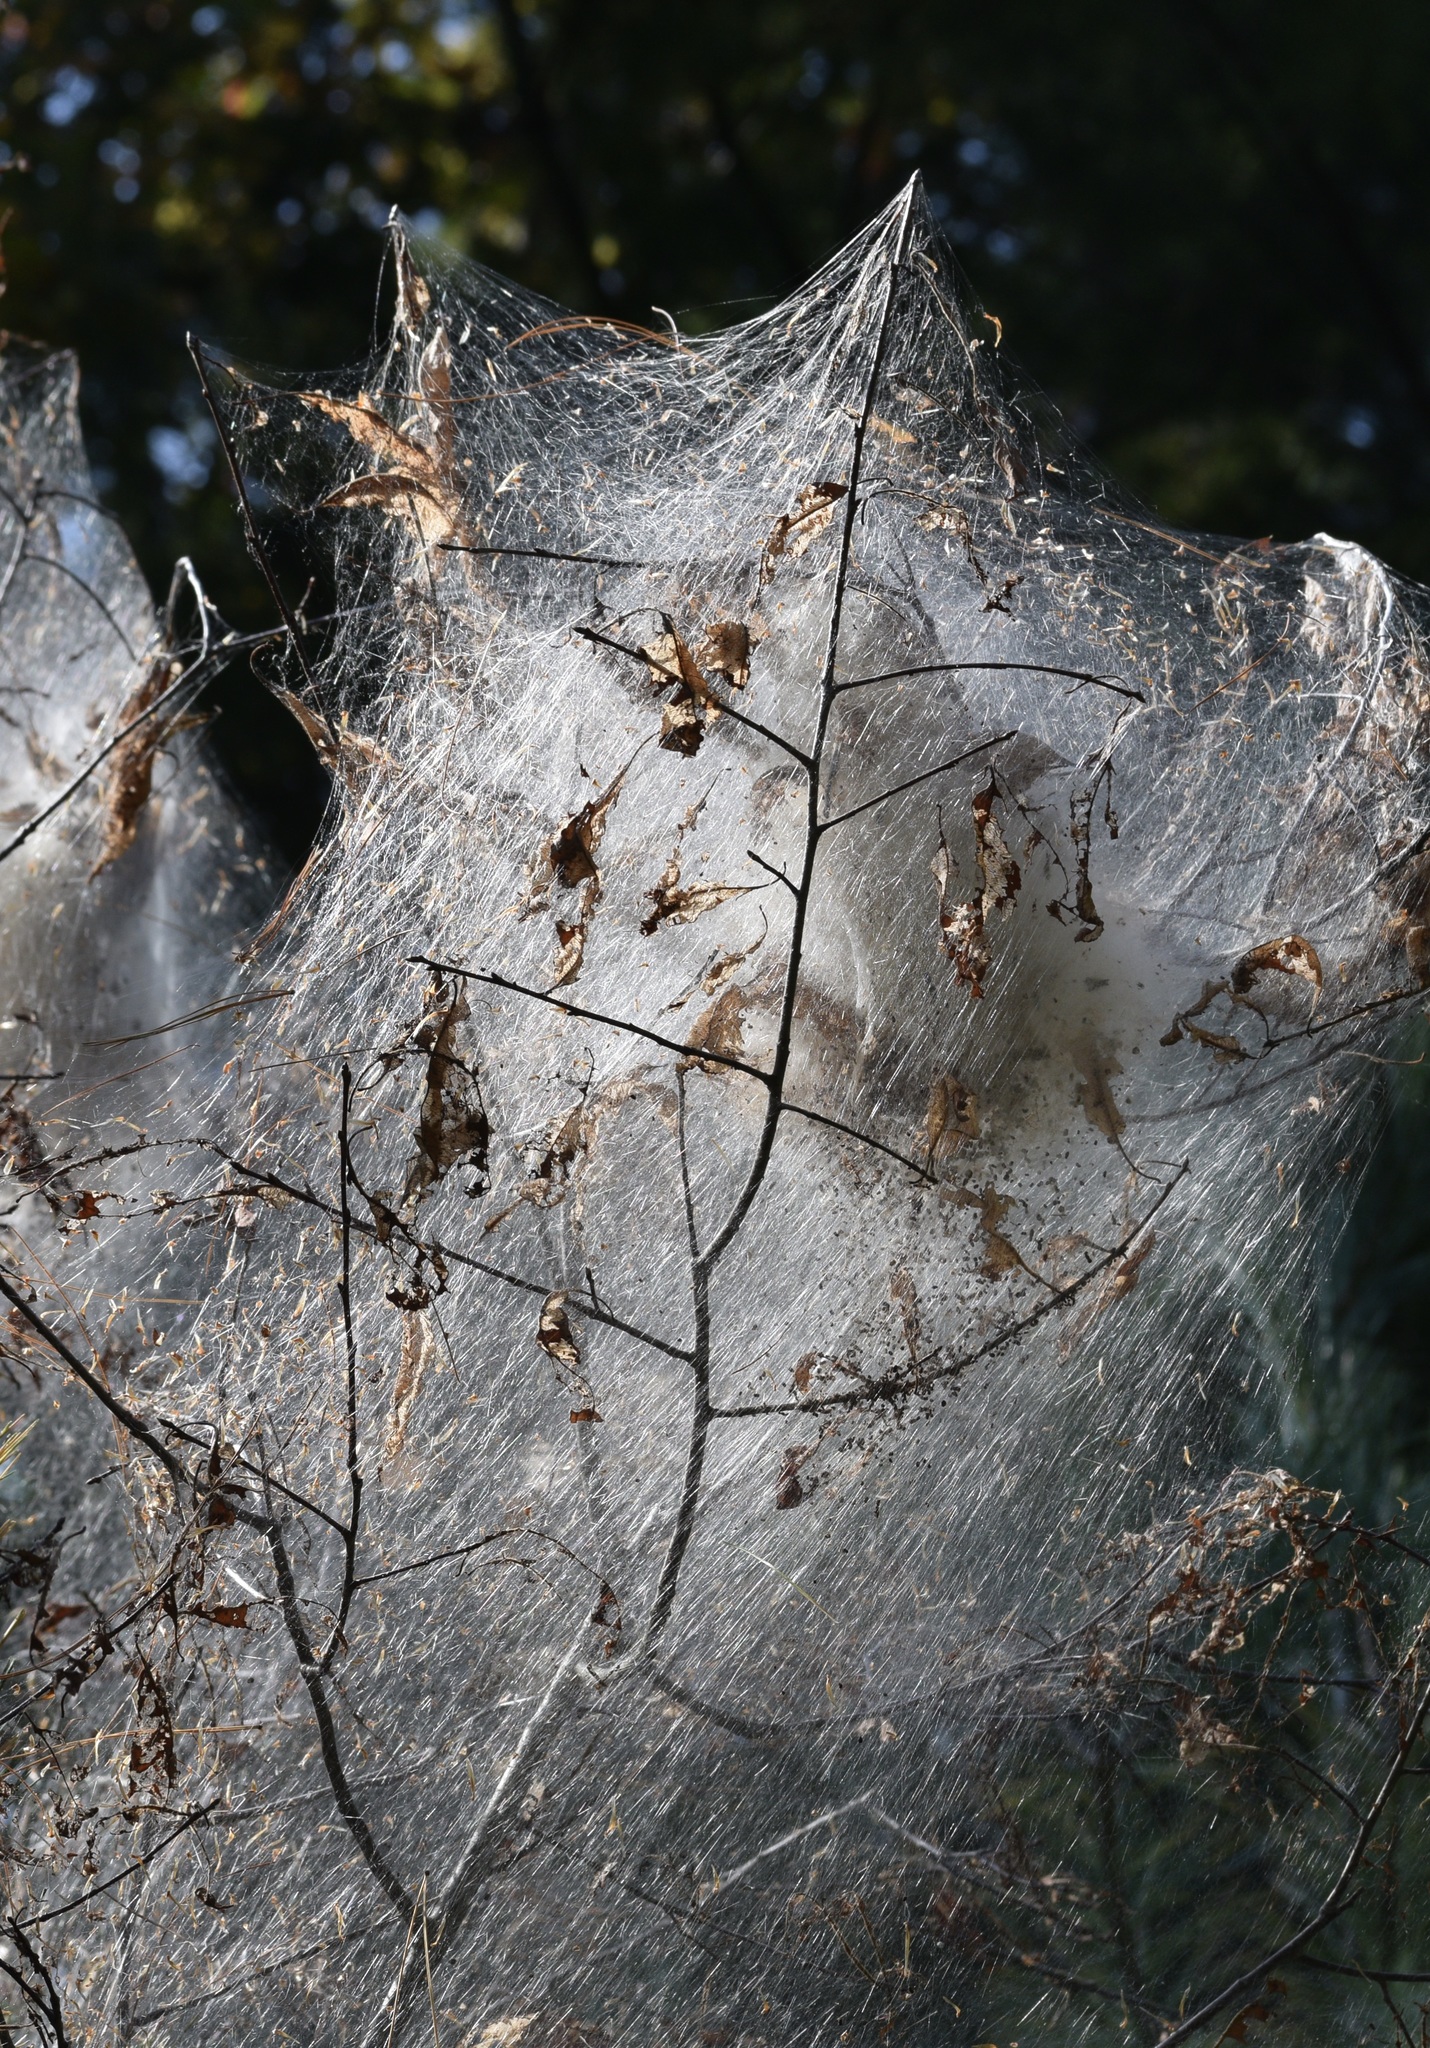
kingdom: Animalia
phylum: Arthropoda
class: Insecta
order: Lepidoptera
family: Erebidae
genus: Hyphantria
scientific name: Hyphantria cunea
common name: American white moth
